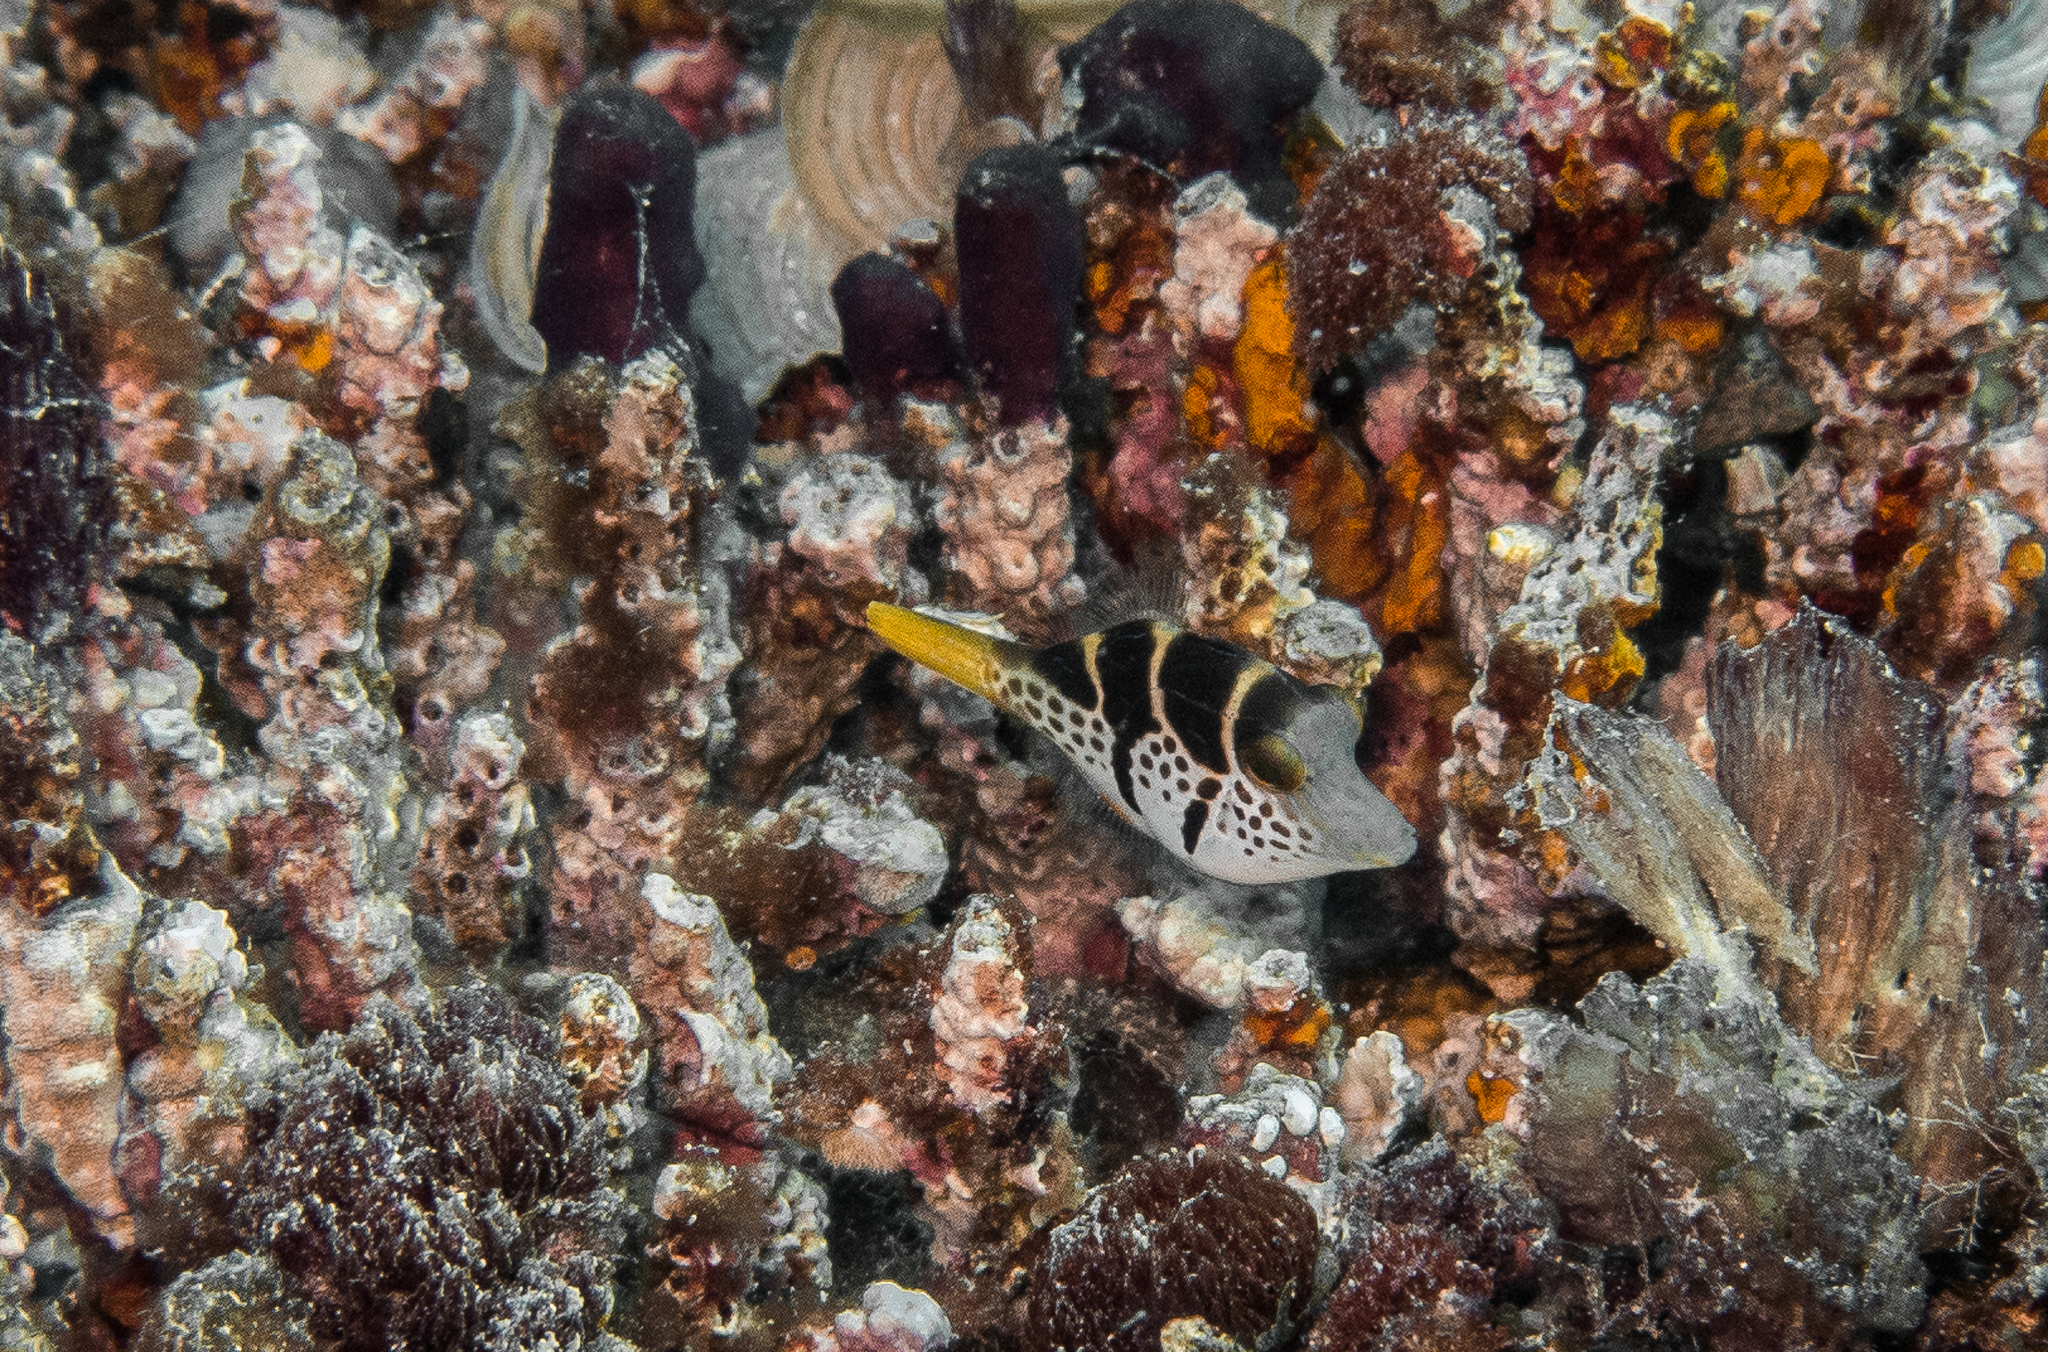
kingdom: Animalia
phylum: Chordata
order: Tetraodontiformes
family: Monacanthidae
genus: Paraluteres
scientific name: Paraluteres prionurus
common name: Black-saddled leatherjacket
